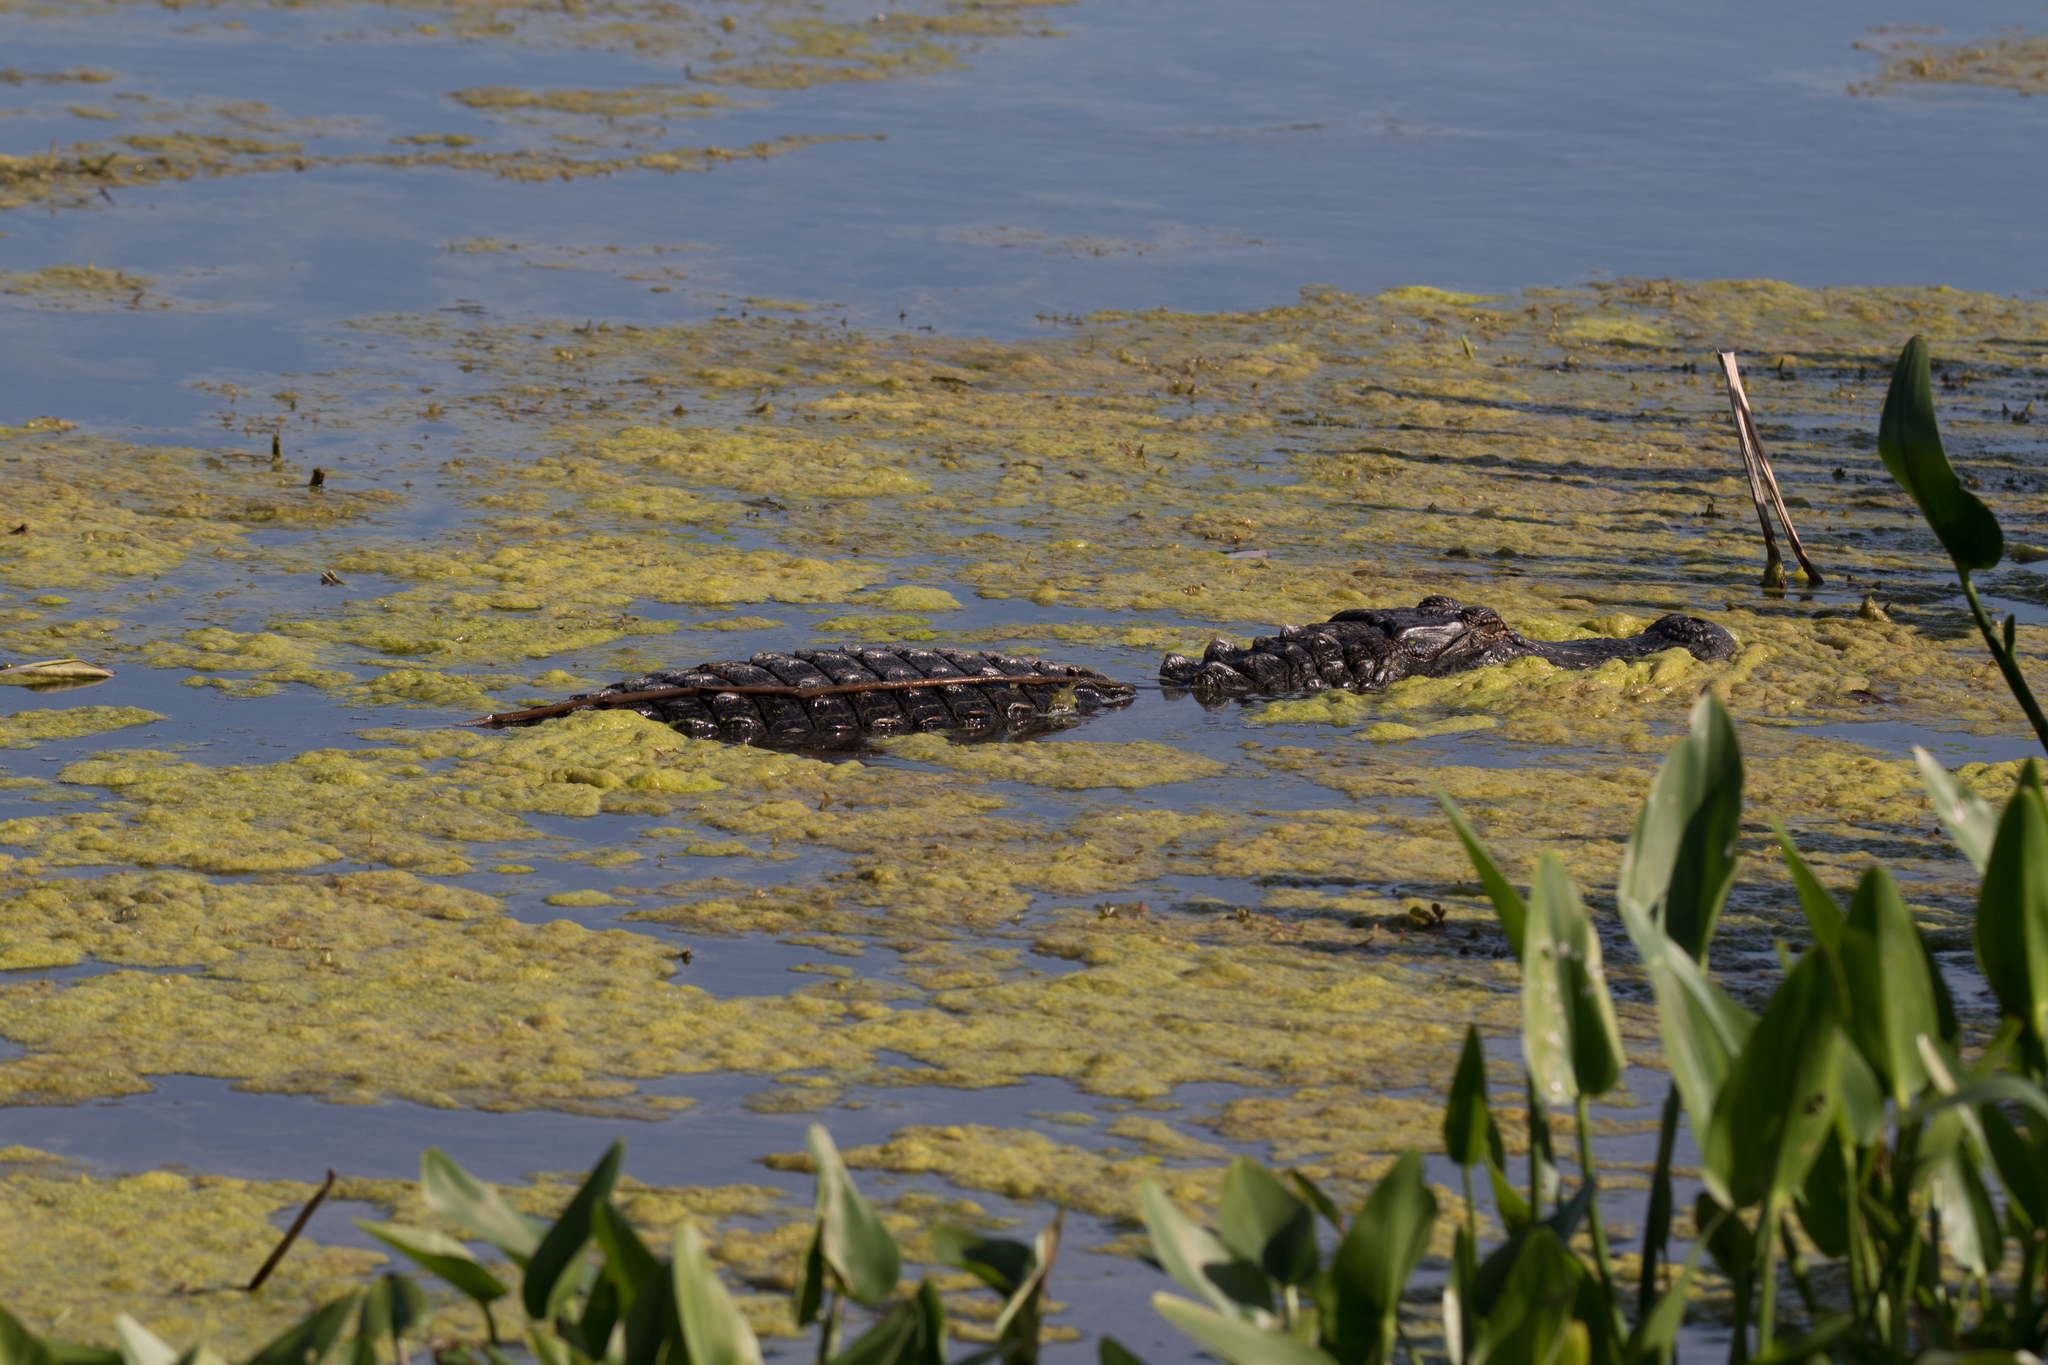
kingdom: Animalia
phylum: Chordata
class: Crocodylia
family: Alligatoridae
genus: Alligator
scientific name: Alligator mississippiensis
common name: American alligator
